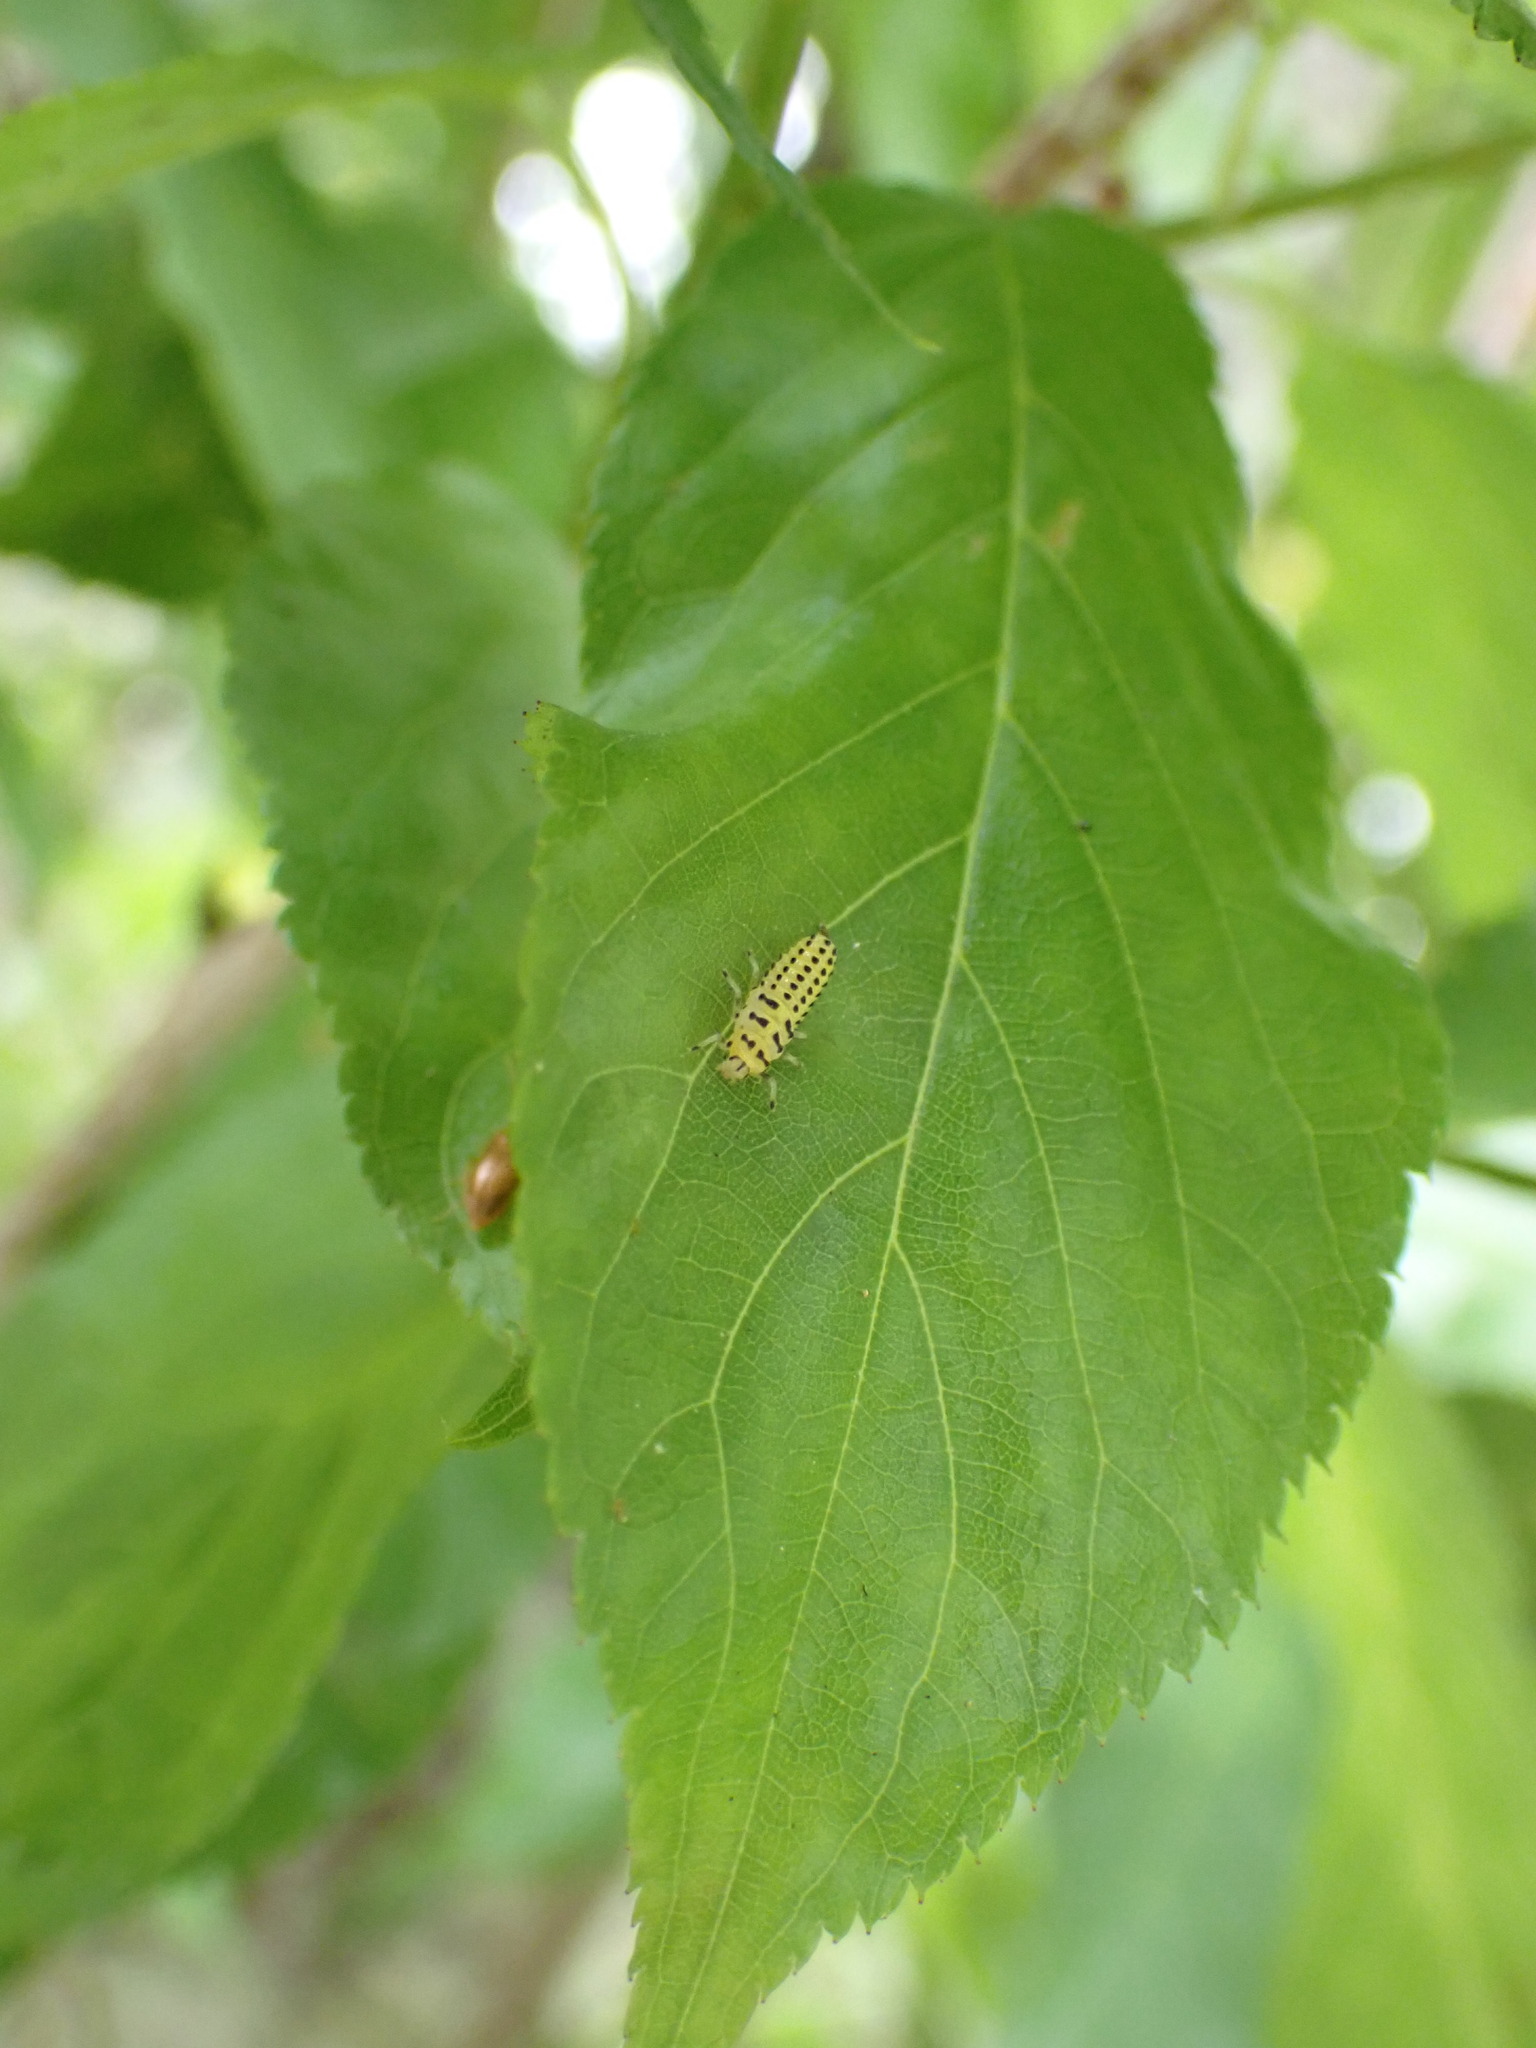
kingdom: Animalia
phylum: Arthropoda
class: Insecta
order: Coleoptera
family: Coccinellidae
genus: Illeis
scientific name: Illeis koebelei
